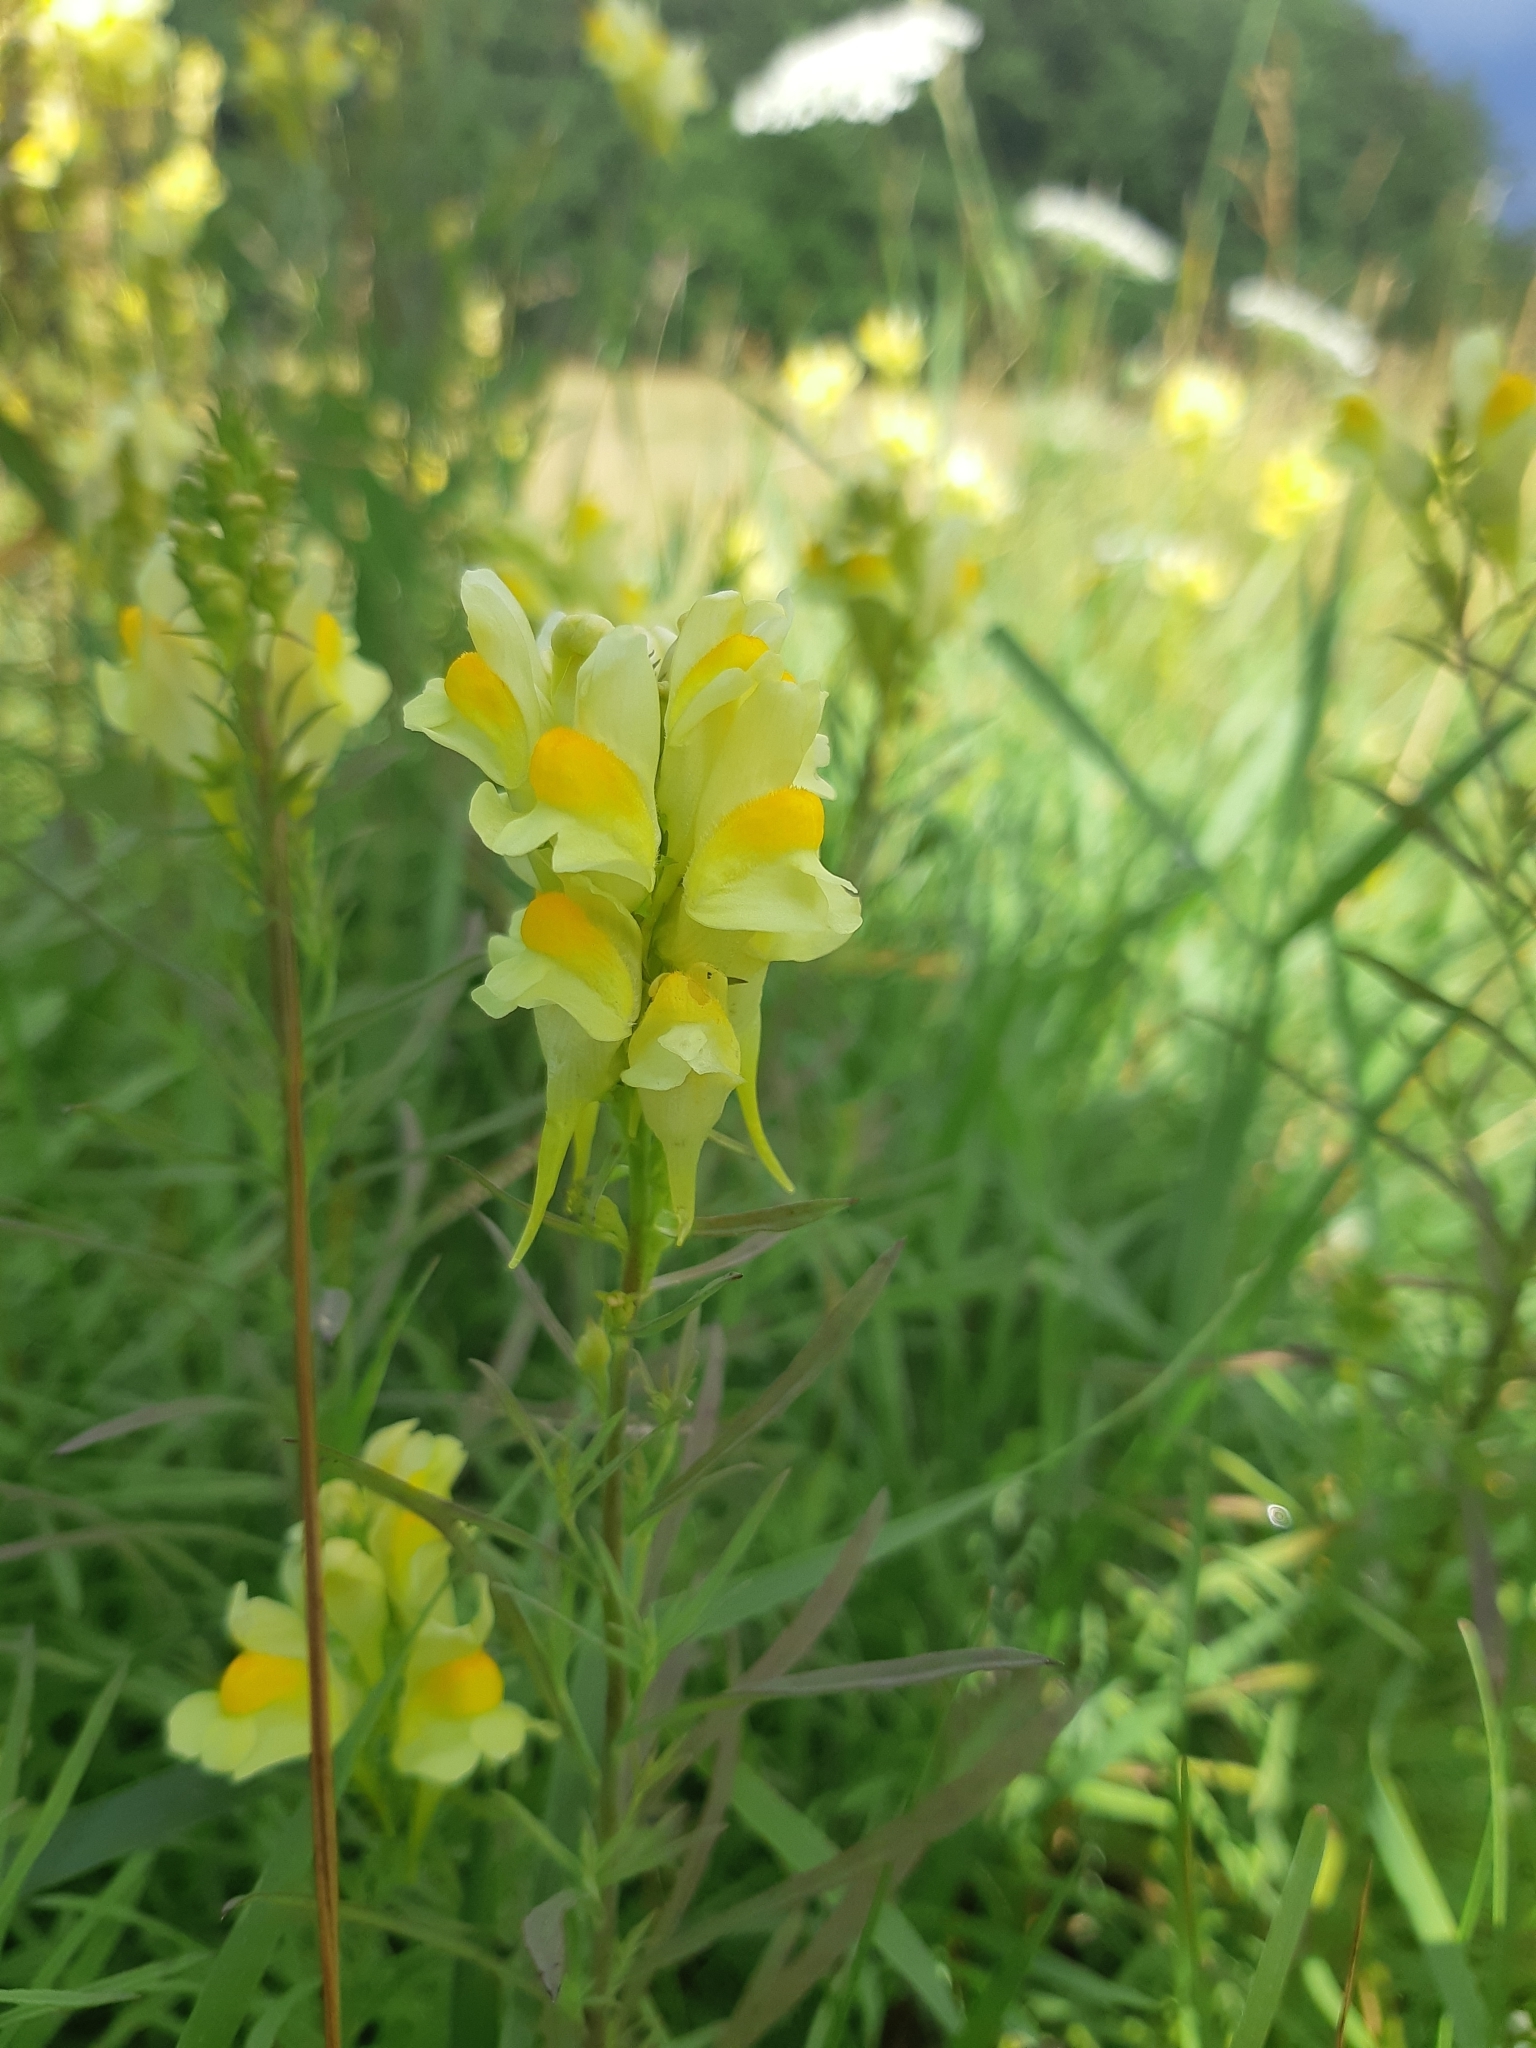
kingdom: Plantae
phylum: Tracheophyta
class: Magnoliopsida
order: Lamiales
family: Plantaginaceae
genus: Linaria
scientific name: Linaria vulgaris
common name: Butter and eggs
